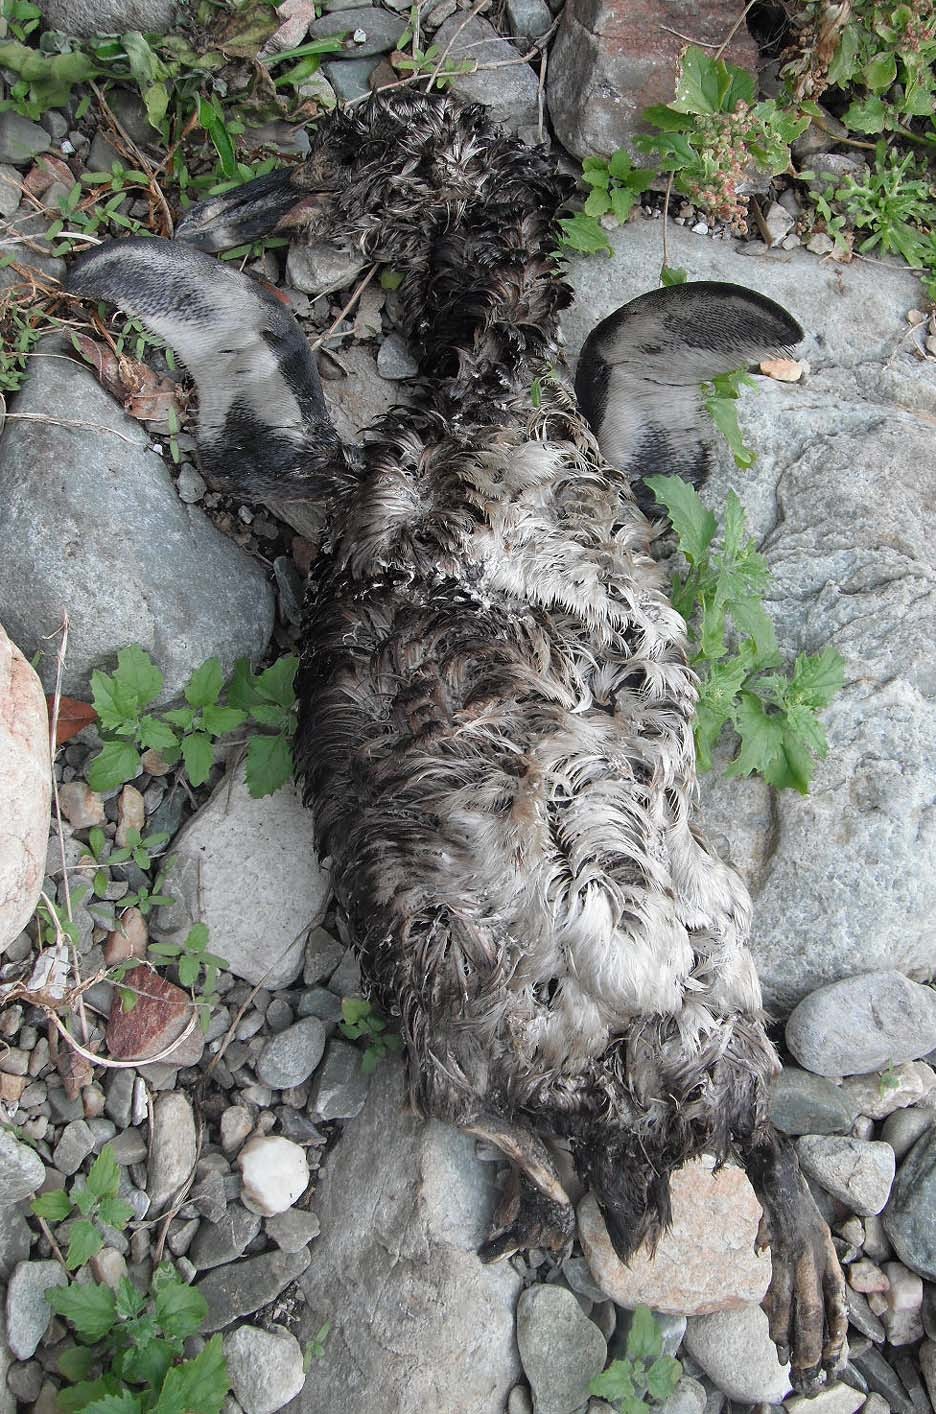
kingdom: Animalia
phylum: Chordata
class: Aves
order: Sphenisciformes
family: Spheniscidae
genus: Spheniscus
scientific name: Spheniscus demersus
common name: African penguin
